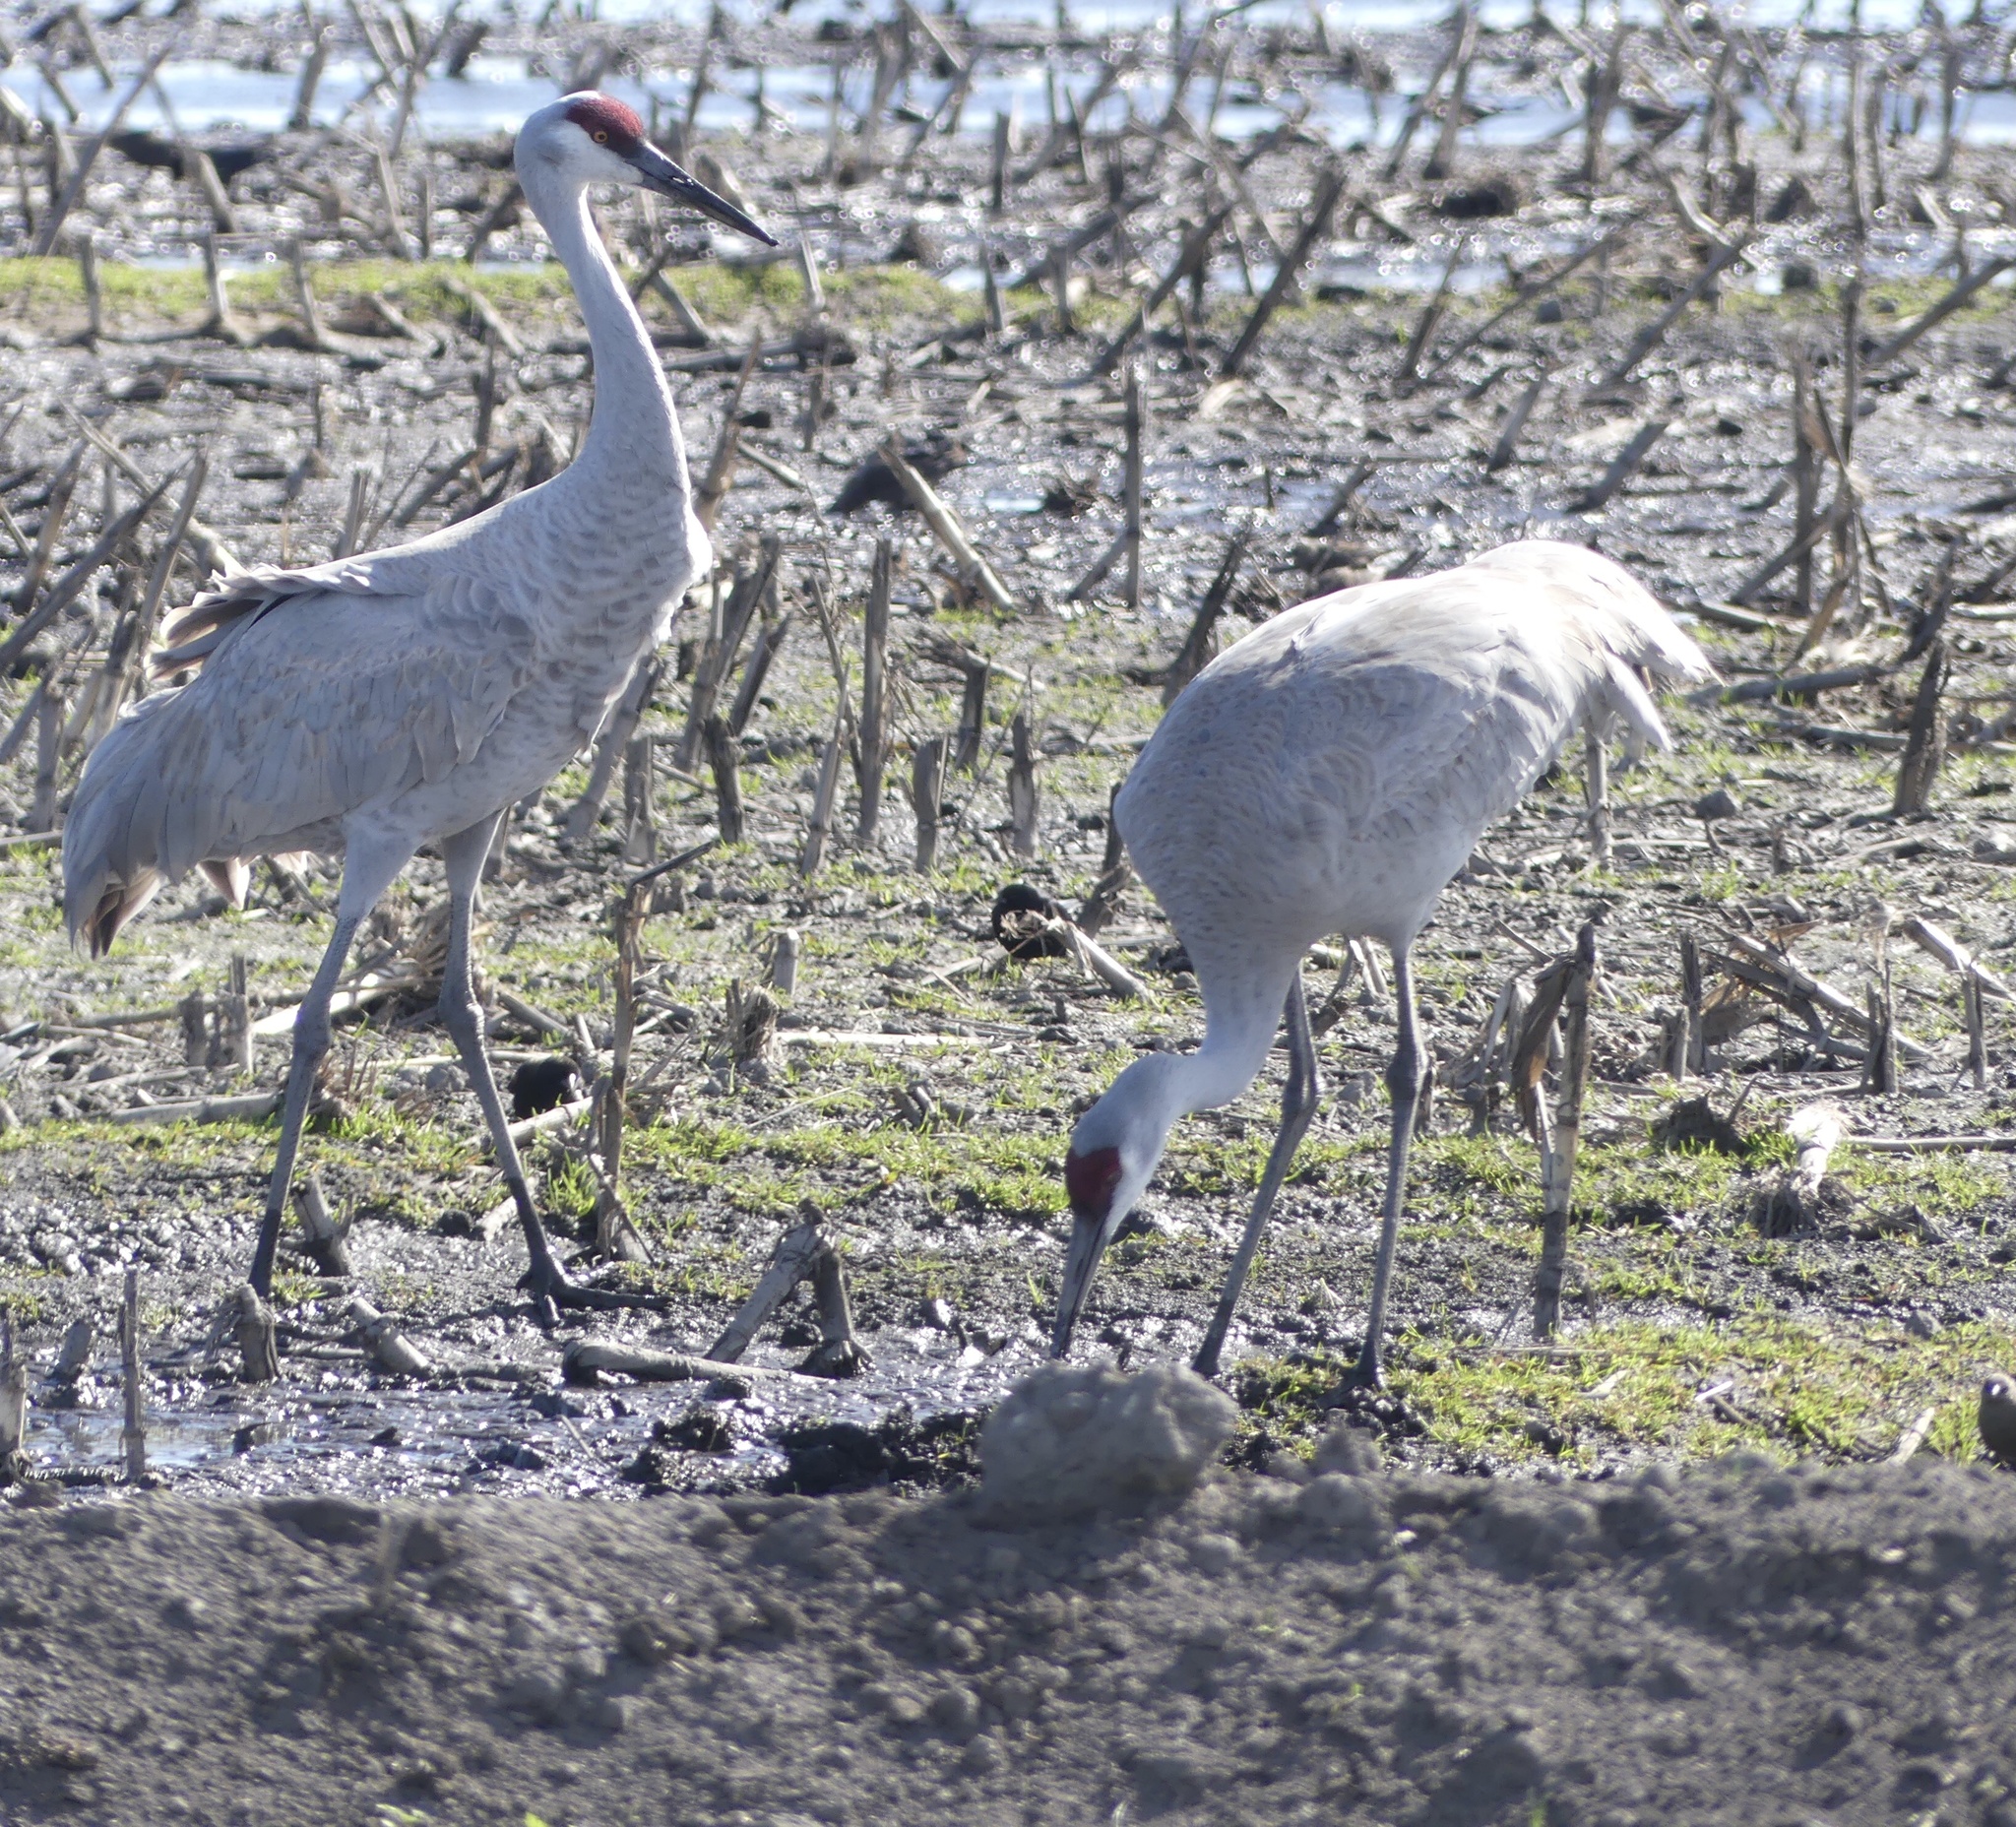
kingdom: Animalia
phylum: Chordata
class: Aves
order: Gruiformes
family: Gruidae
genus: Grus
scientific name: Grus canadensis
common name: Sandhill crane
